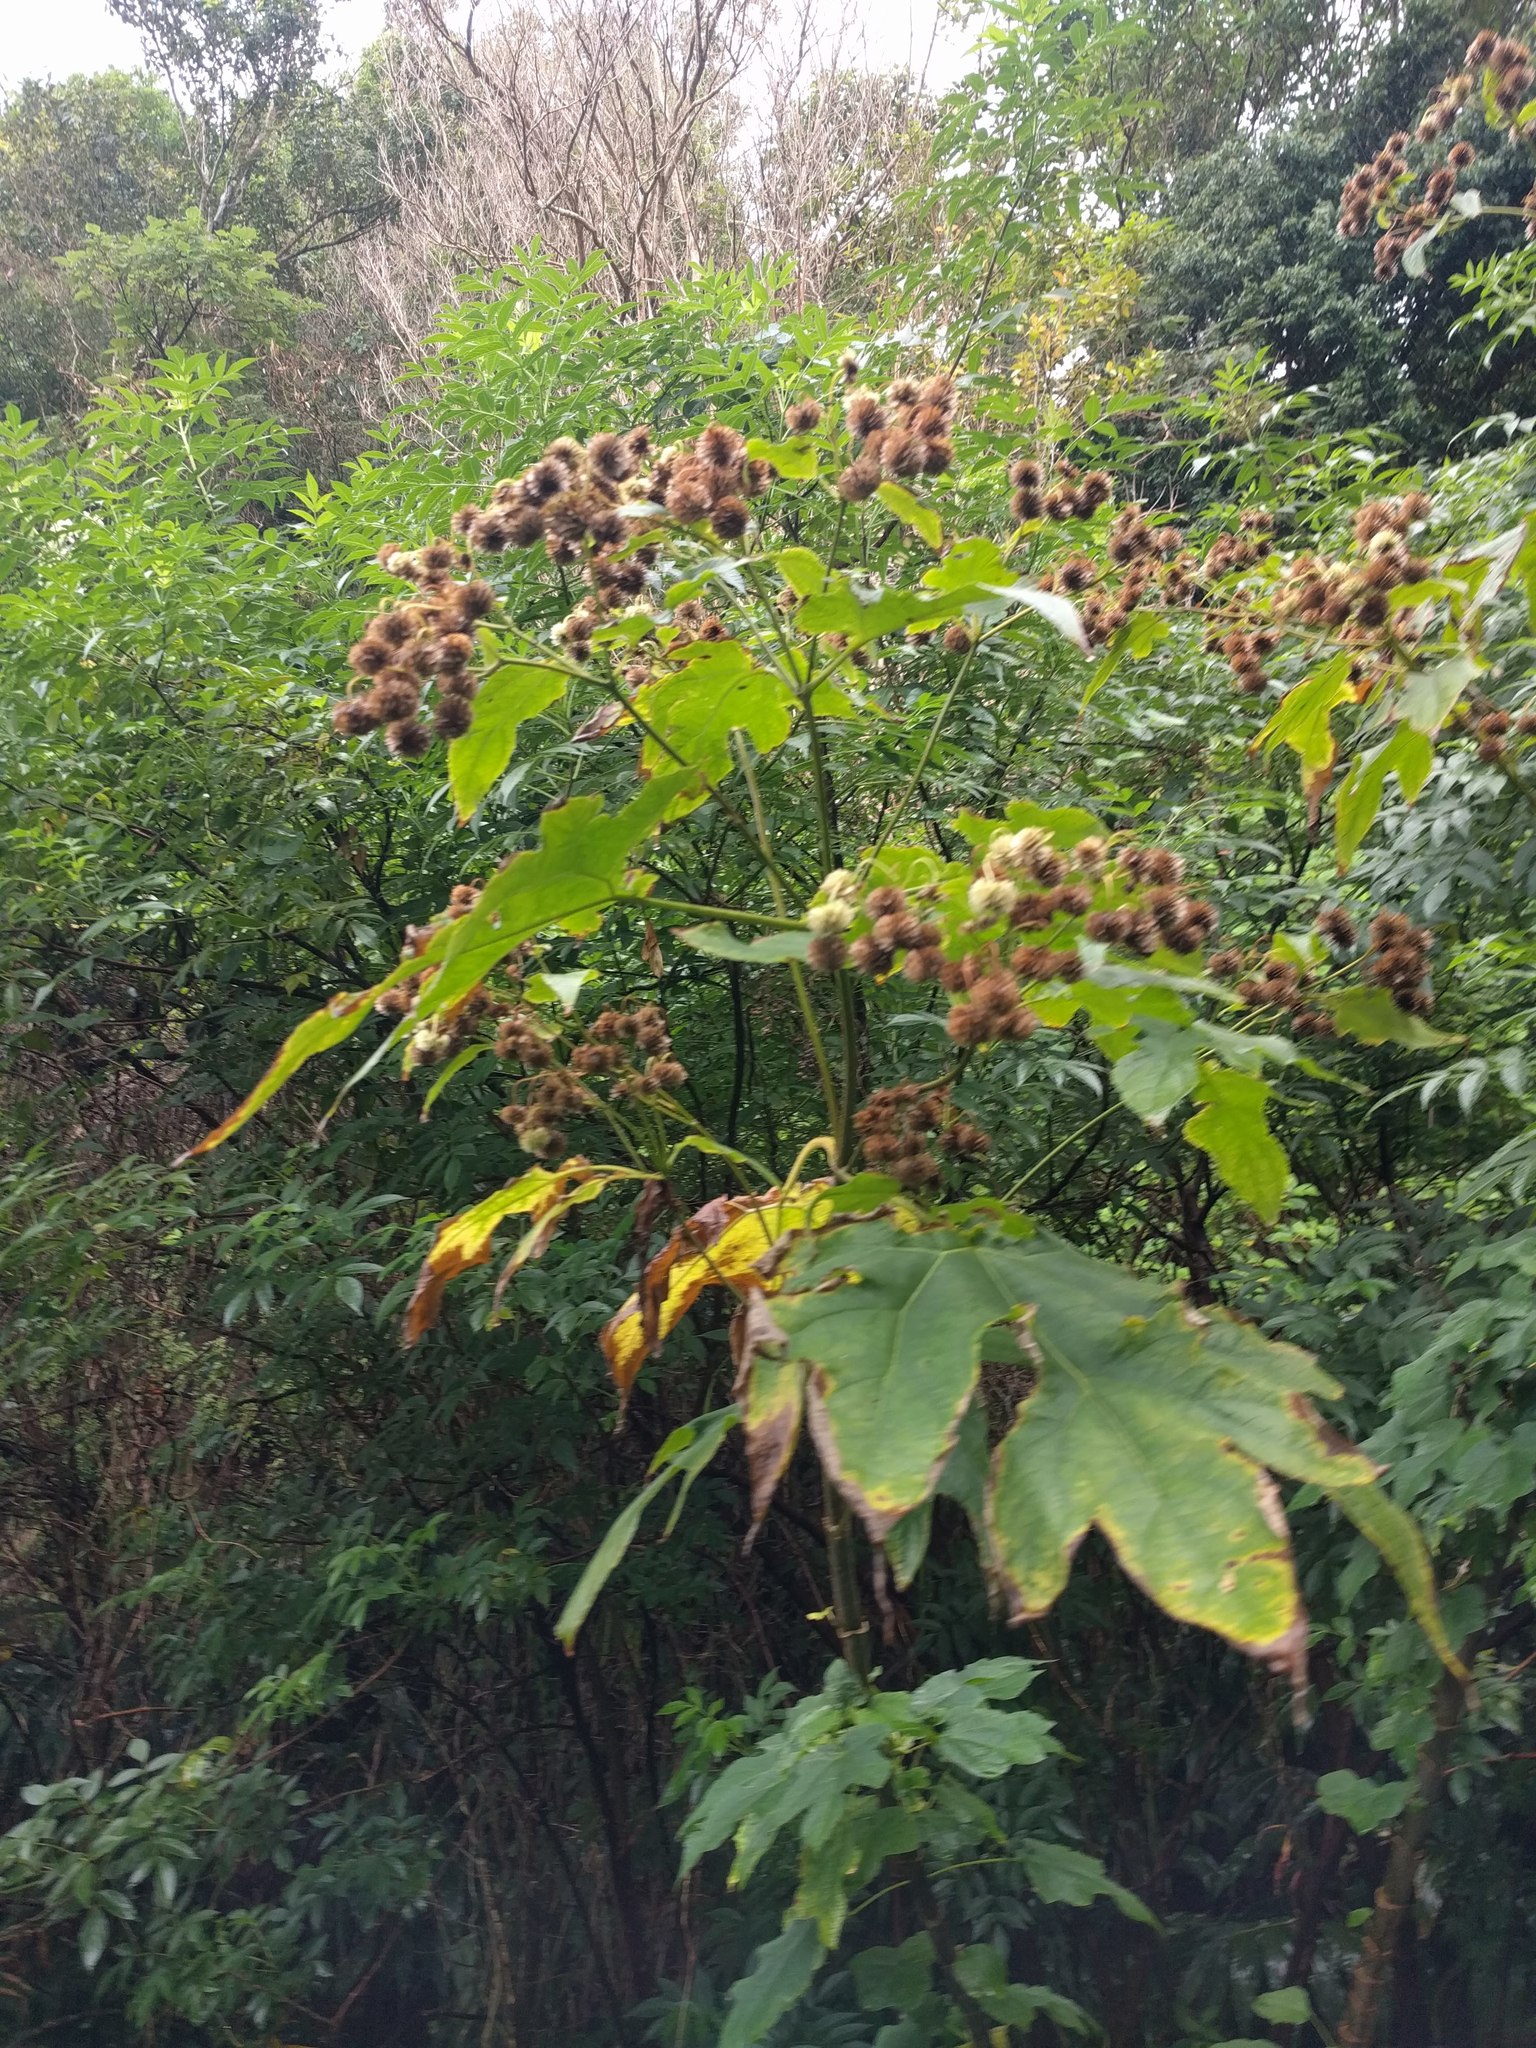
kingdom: Plantae
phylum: Tracheophyta
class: Magnoliopsida
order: Asterales
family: Asteraceae
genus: Montanoa
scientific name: Montanoa hibiscifolia
